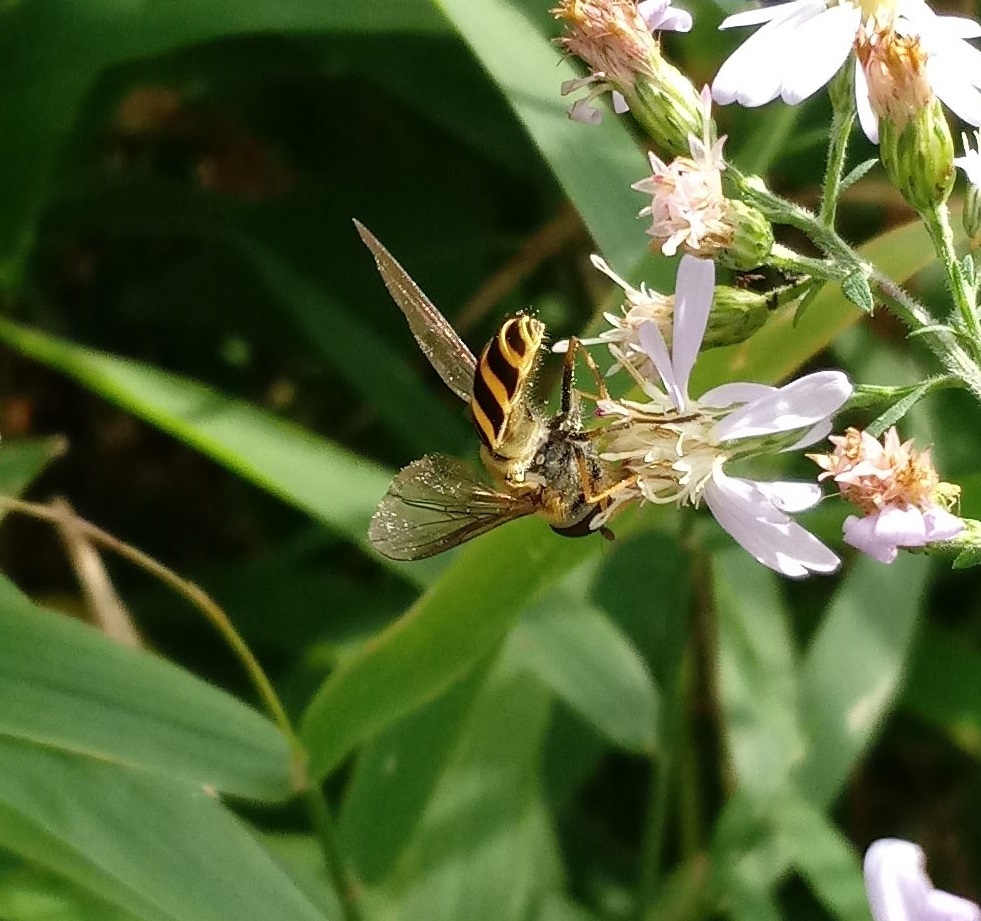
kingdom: Animalia
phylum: Arthropoda
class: Insecta
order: Diptera
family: Syrphidae
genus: Syrphus
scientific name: Syrphus
